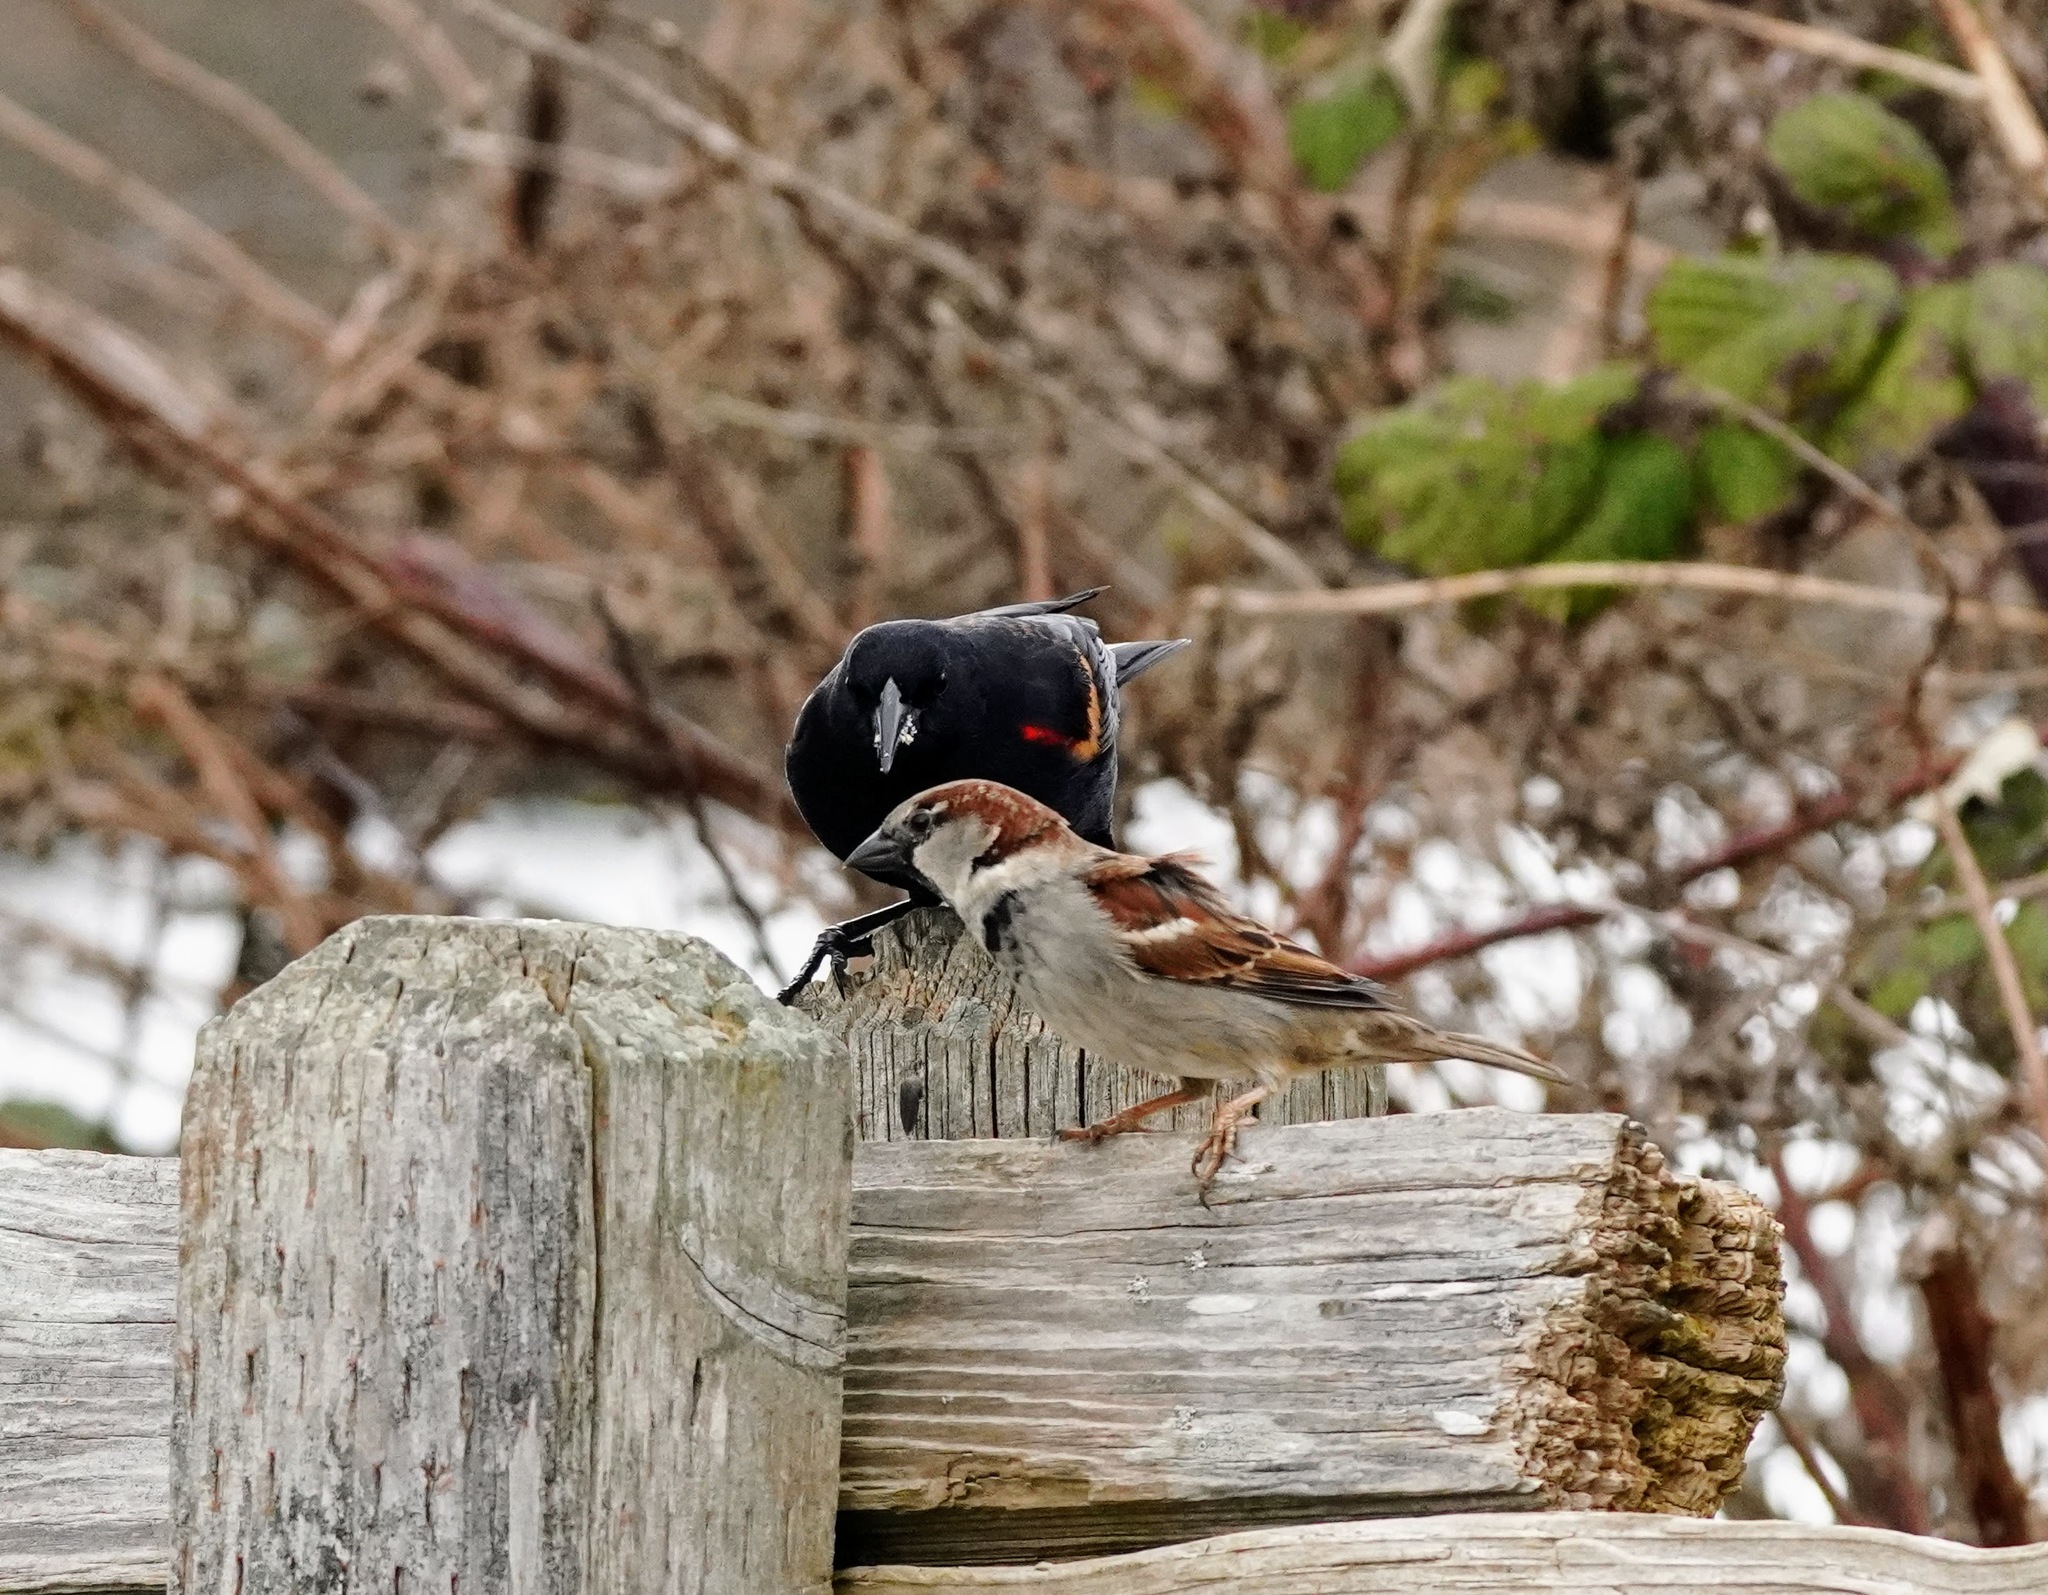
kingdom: Animalia
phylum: Chordata
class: Aves
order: Passeriformes
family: Passeridae
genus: Passer
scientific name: Passer domesticus
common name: House sparrow
